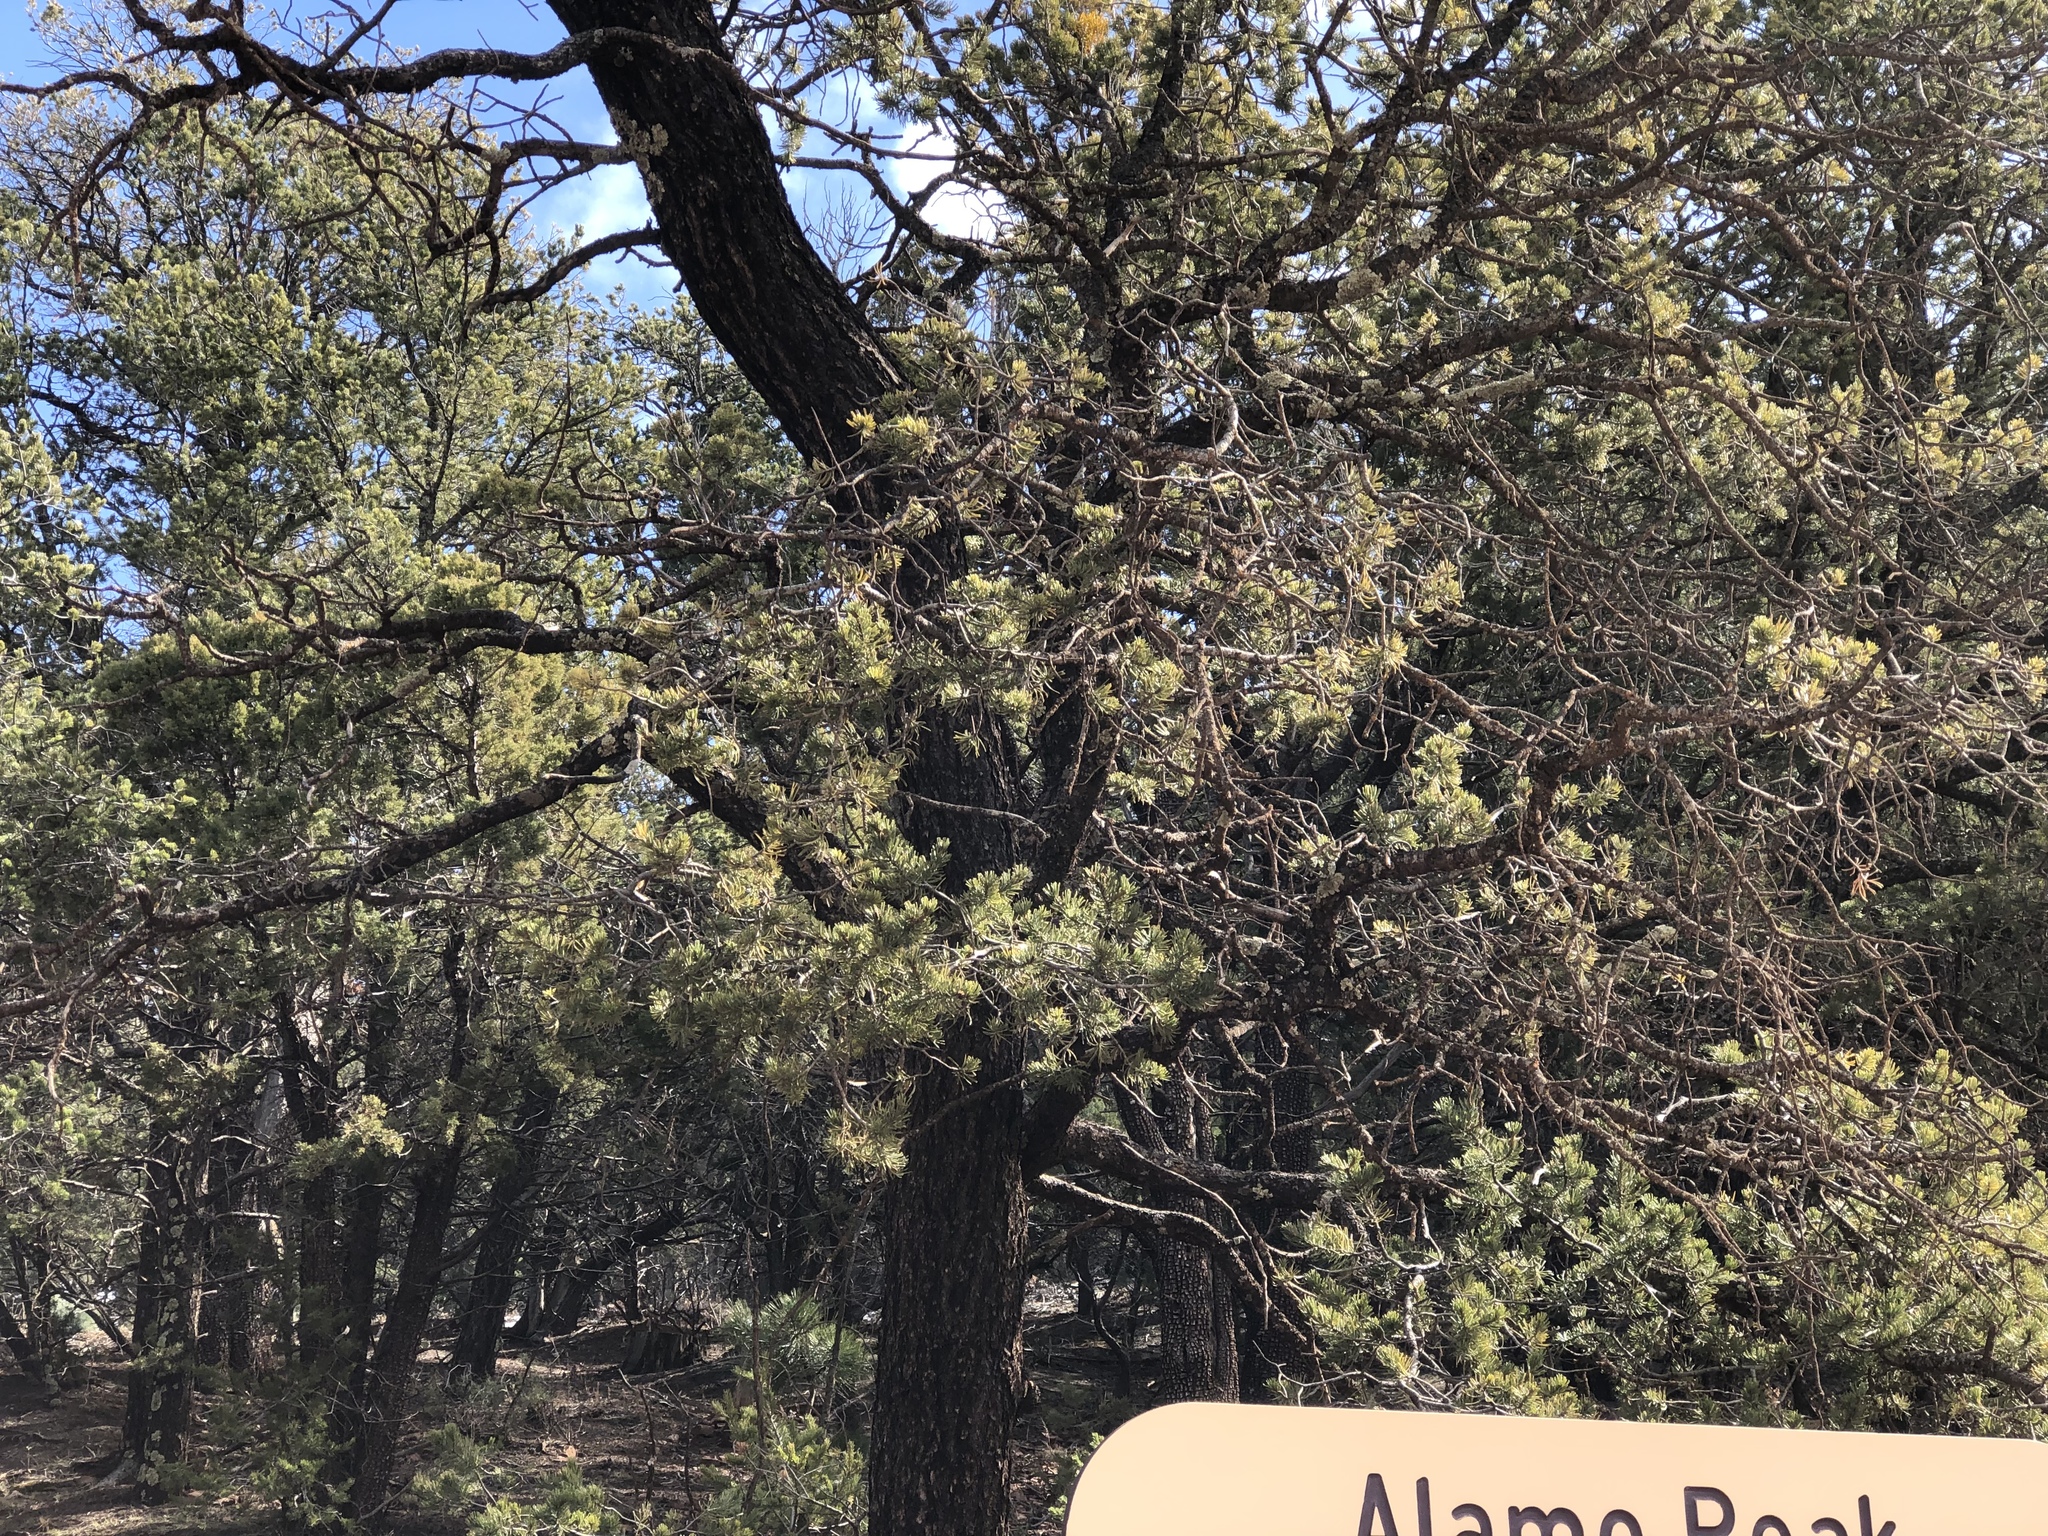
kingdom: Plantae
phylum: Tracheophyta
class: Pinopsida
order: Pinales
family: Pinaceae
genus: Pinus
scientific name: Pinus edulis
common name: Colorado pinyon
